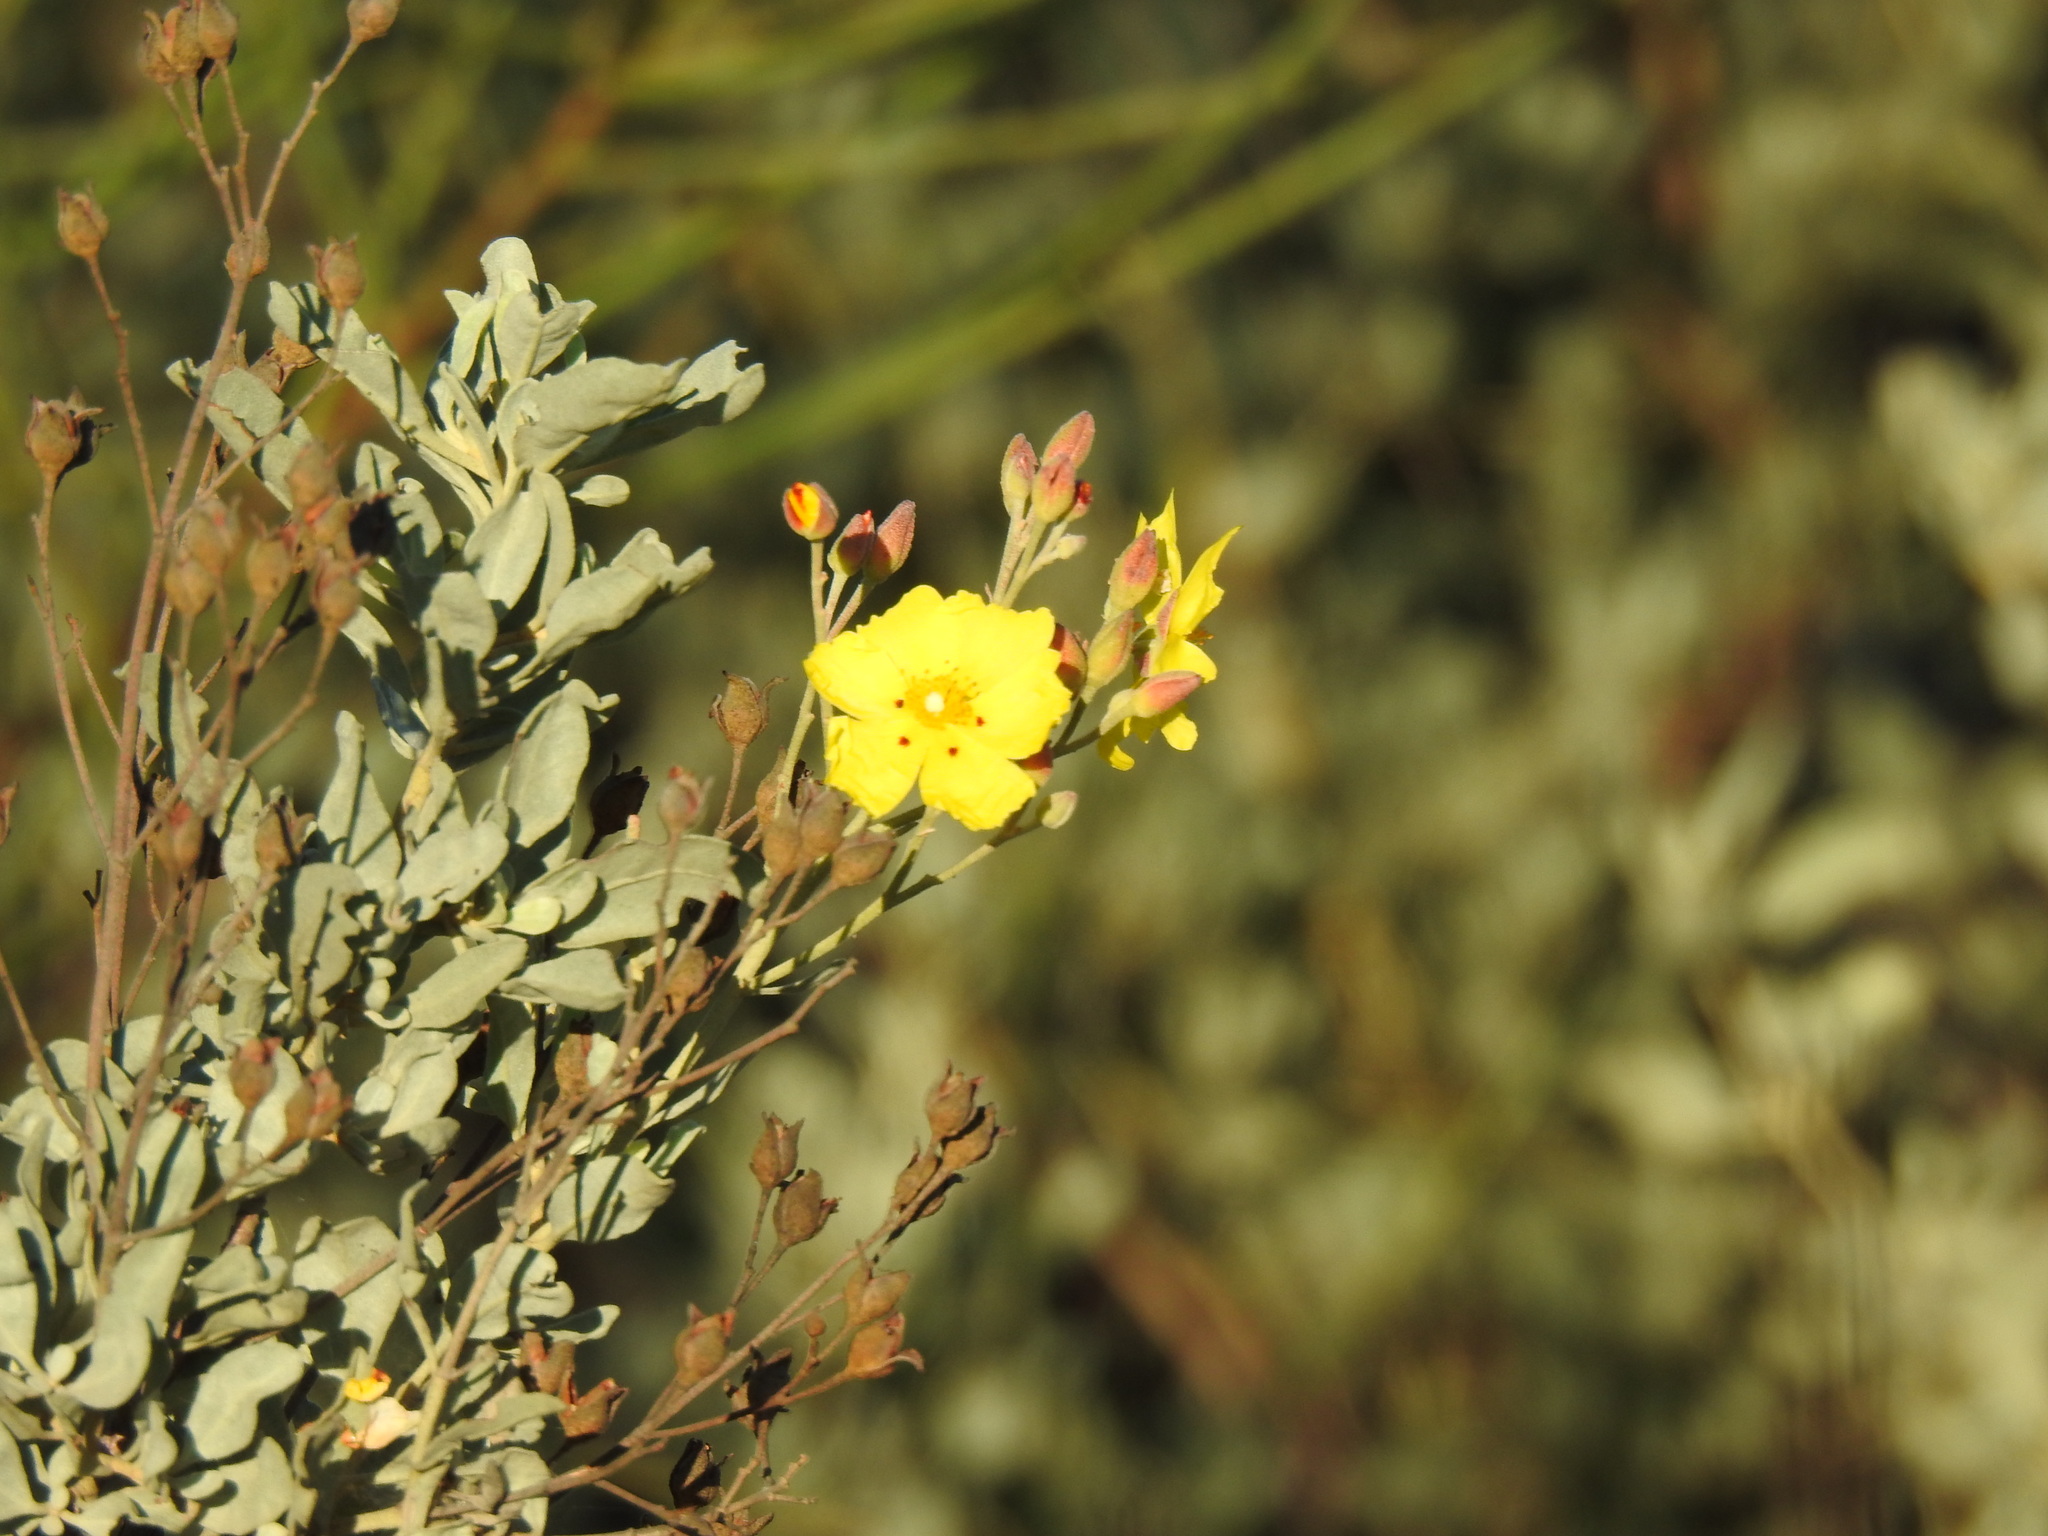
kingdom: Plantae
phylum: Tracheophyta
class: Magnoliopsida
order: Malvales
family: Cistaceae
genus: Halimium
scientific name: Halimium halimifolium
